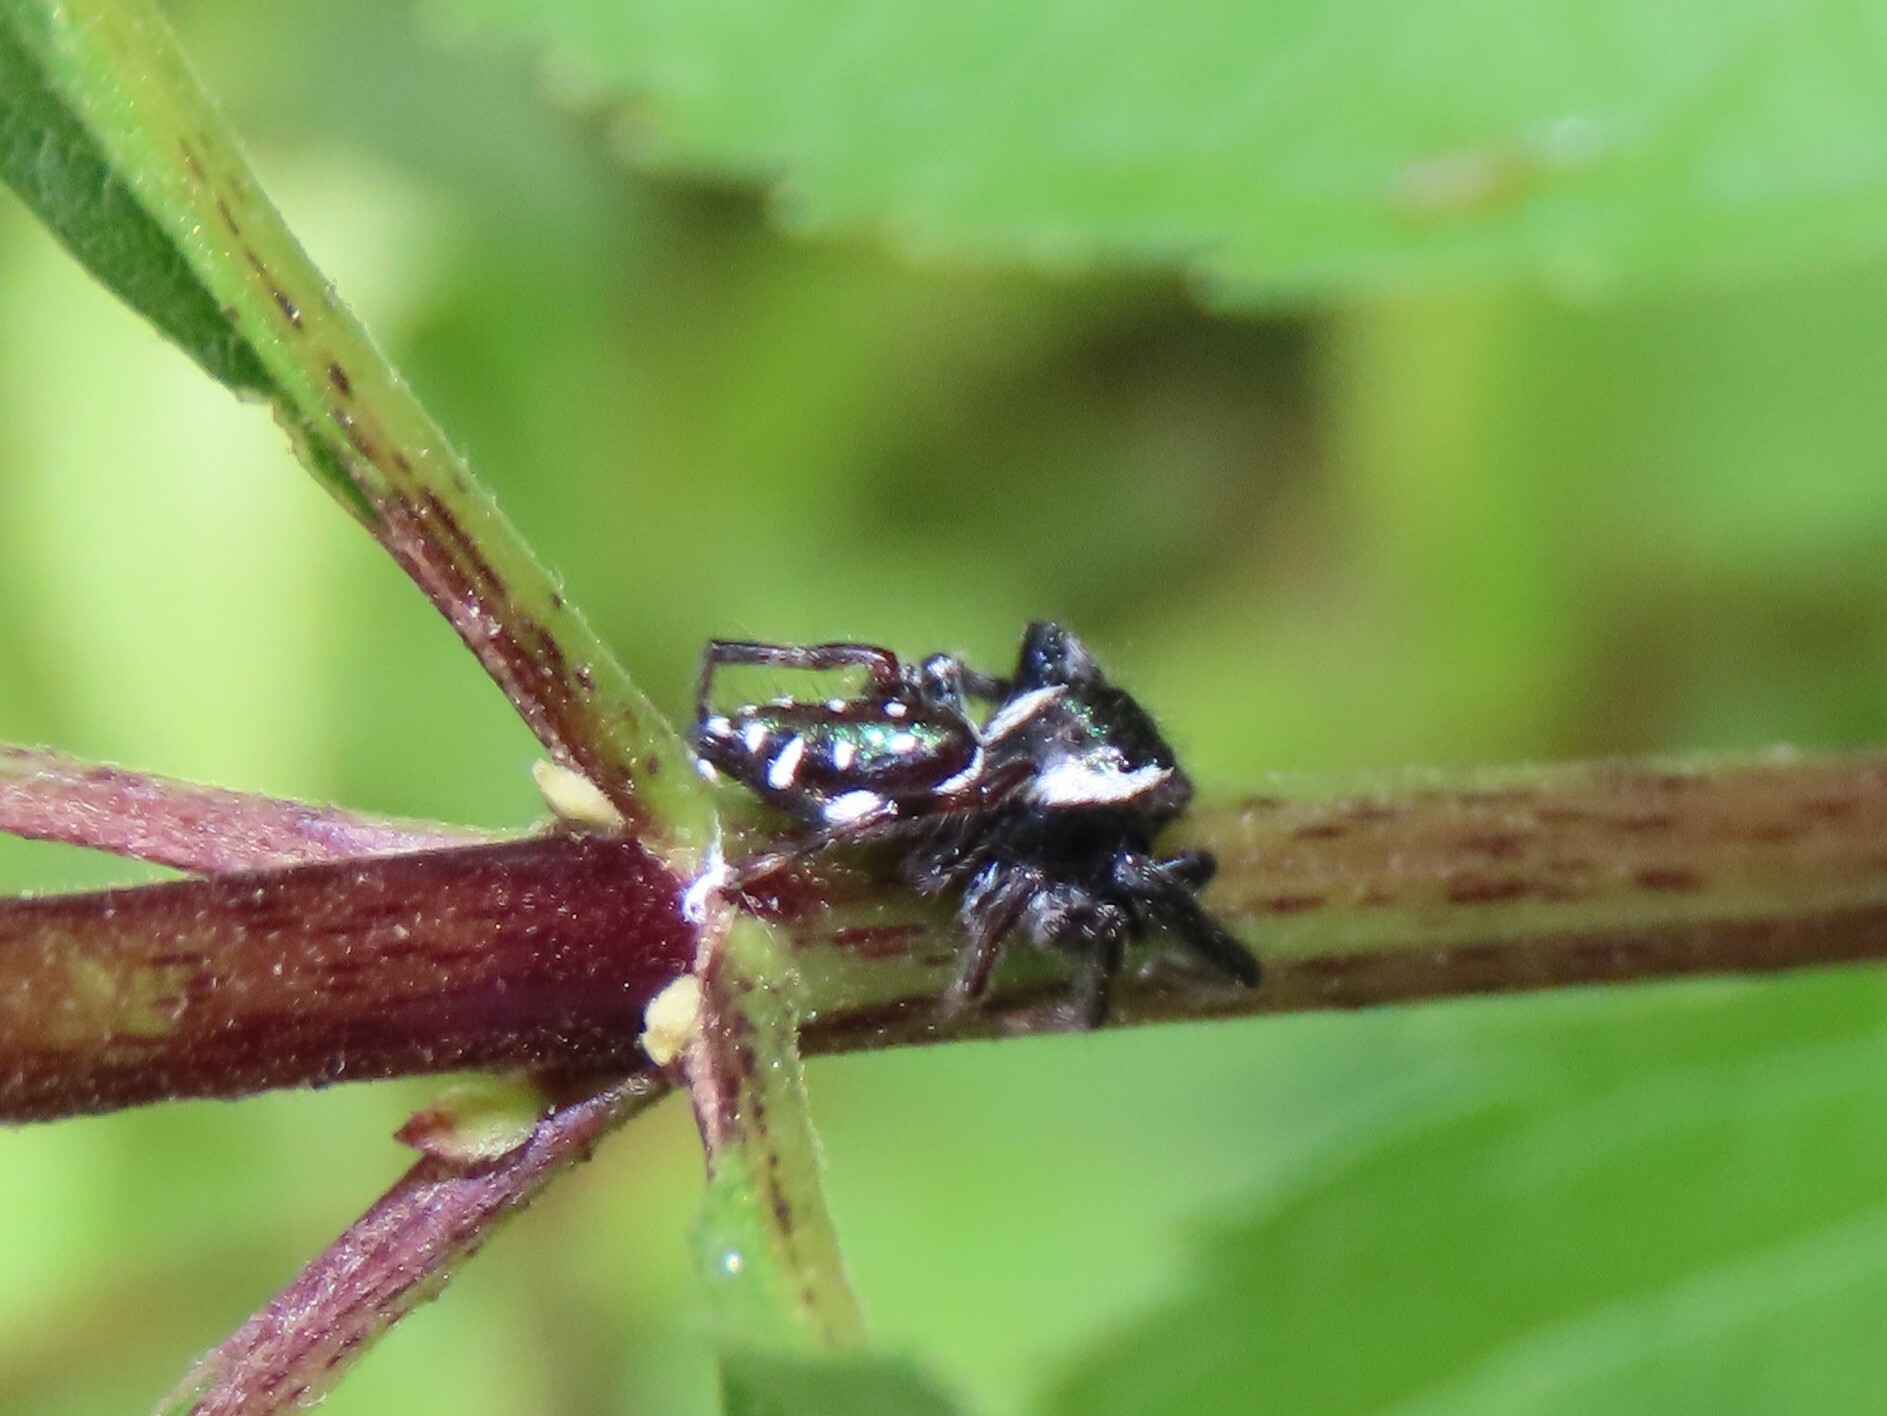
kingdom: Animalia
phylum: Arthropoda
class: Arachnida
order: Araneae
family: Salticidae
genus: Paraphidippus
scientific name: Paraphidippus aurantius
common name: Jumping spiders
